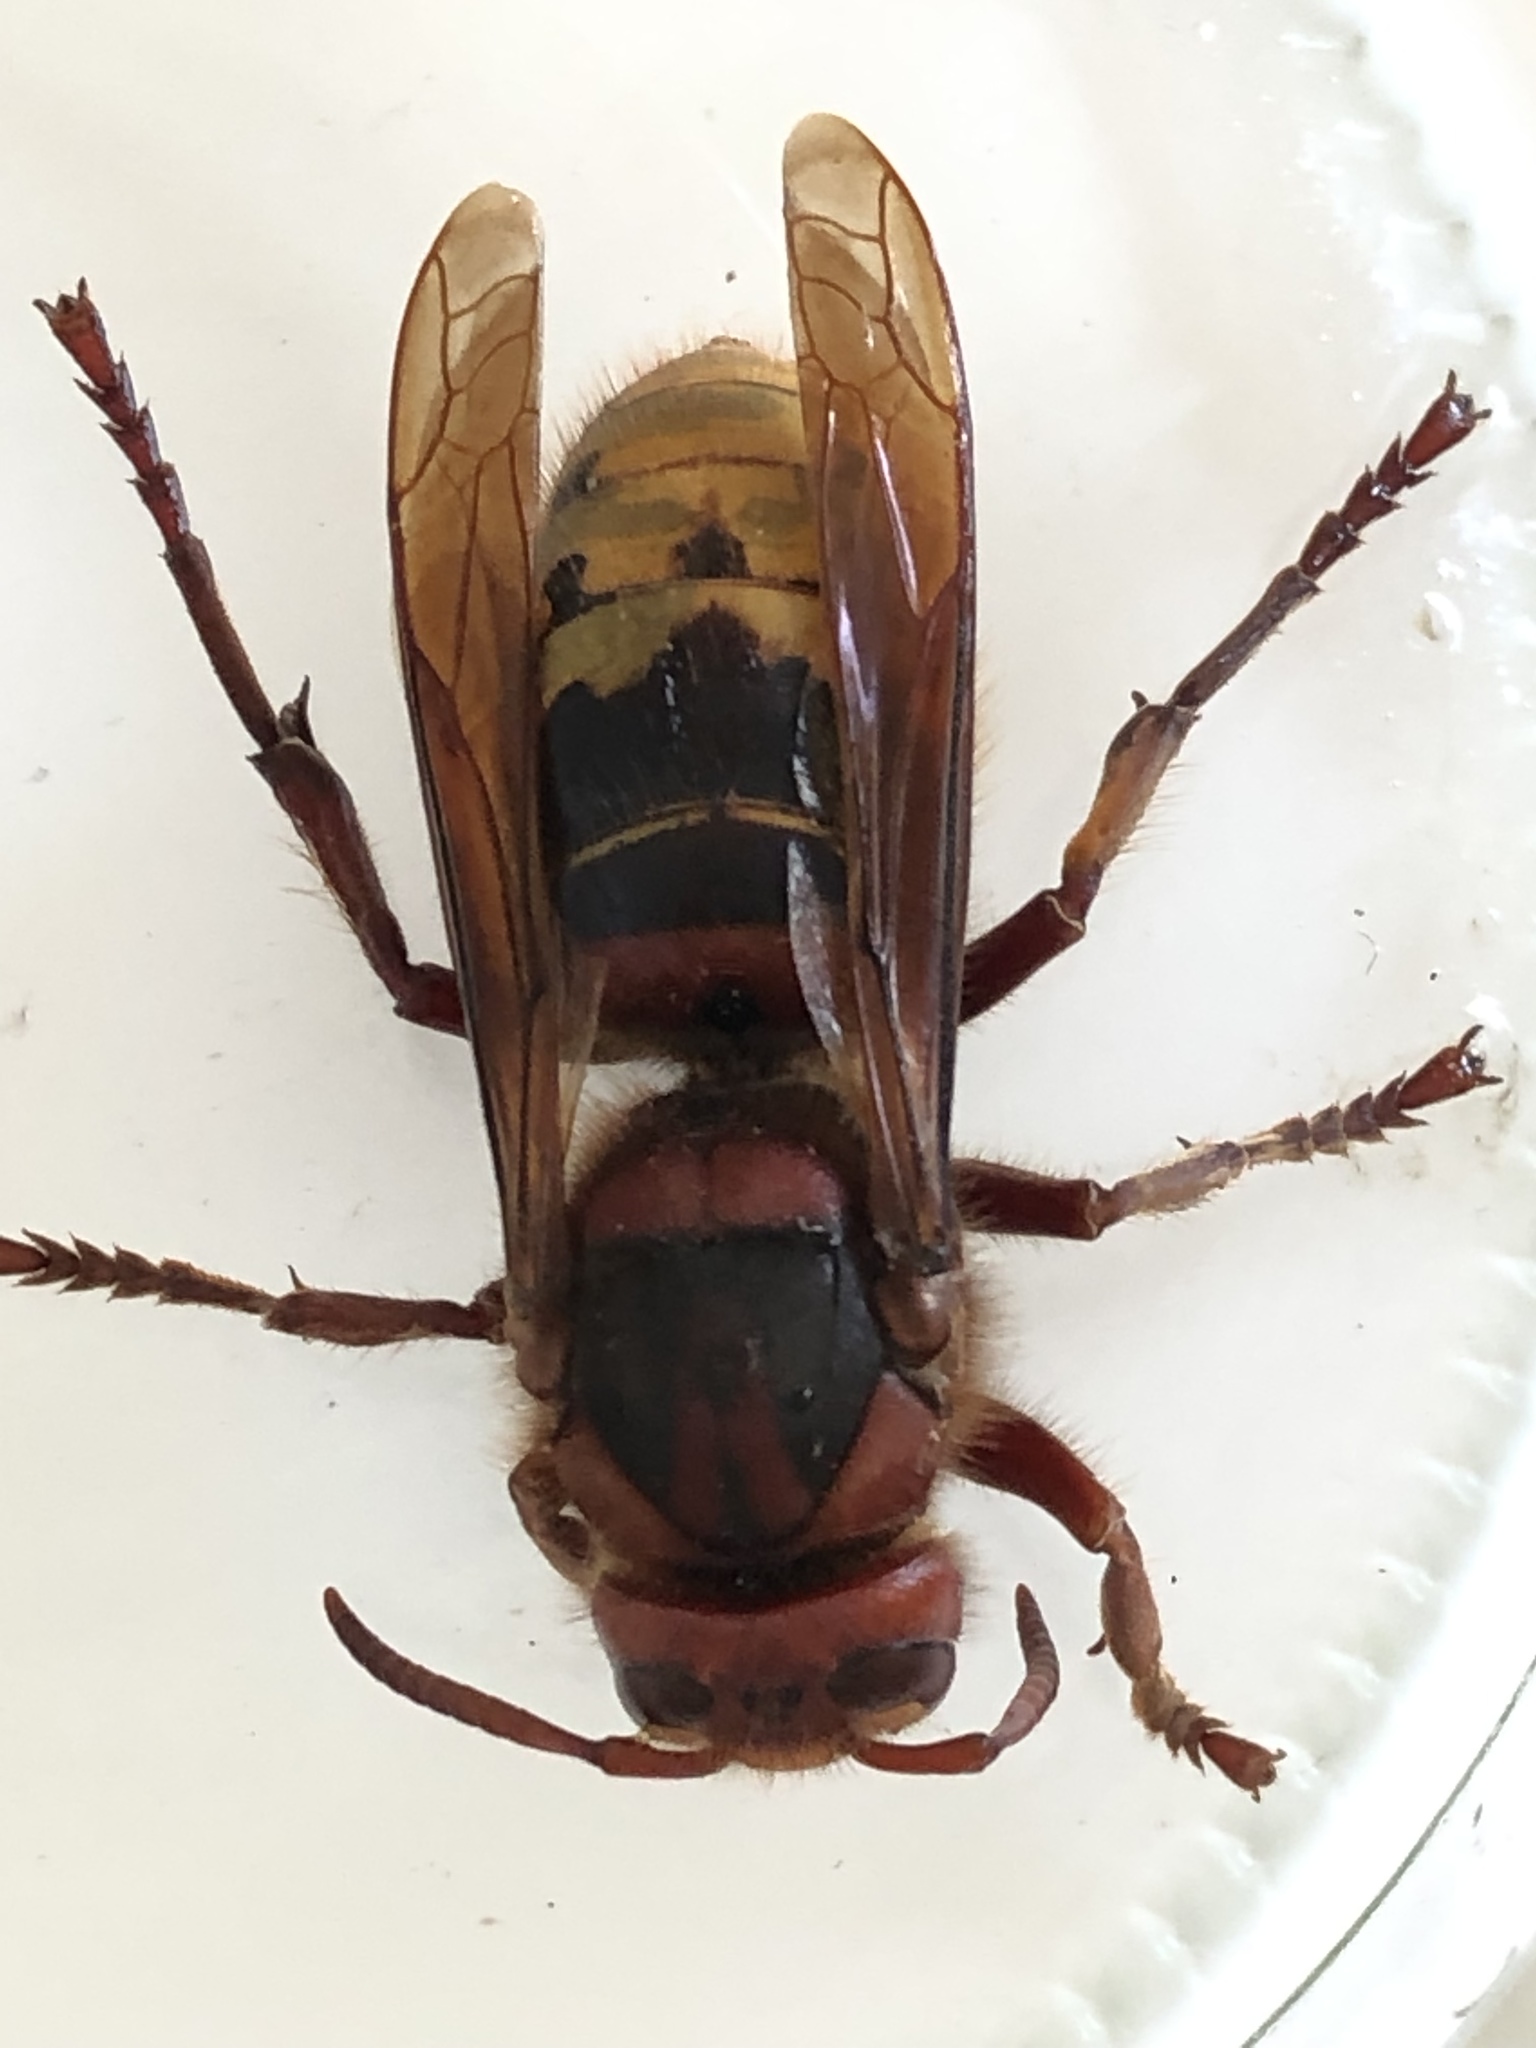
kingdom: Animalia
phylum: Arthropoda
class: Insecta
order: Hymenoptera
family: Vespidae
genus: Vespa
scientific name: Vespa crabro
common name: Hornet
